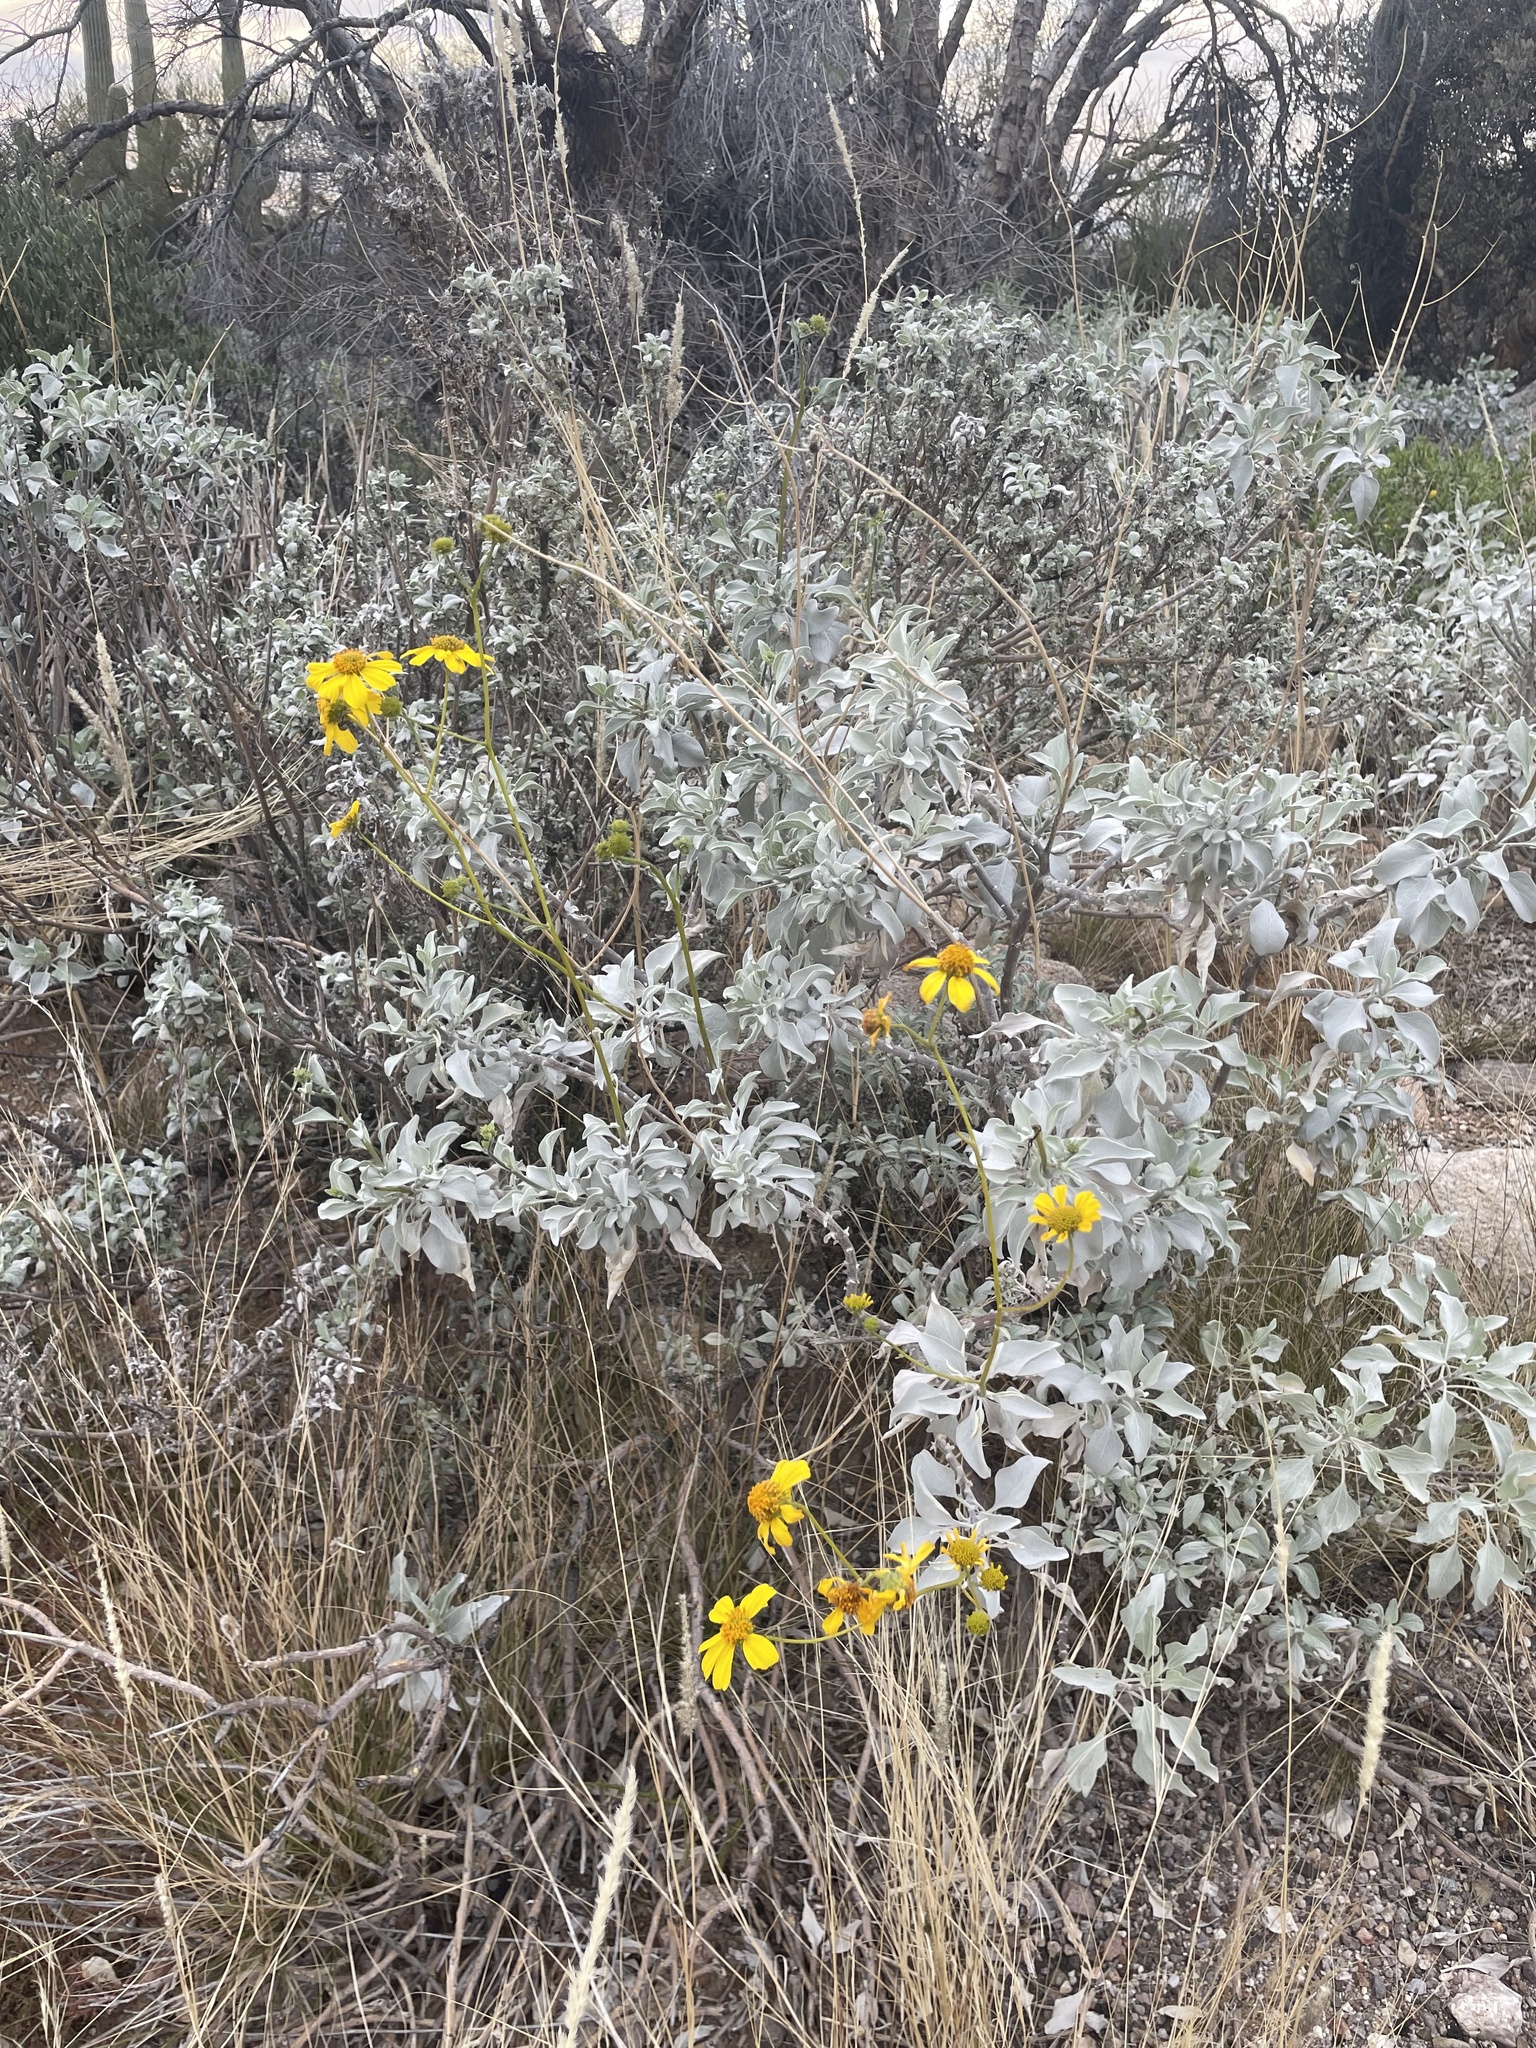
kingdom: Plantae
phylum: Tracheophyta
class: Magnoliopsida
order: Asterales
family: Asteraceae
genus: Encelia
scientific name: Encelia farinosa
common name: Brittlebush
